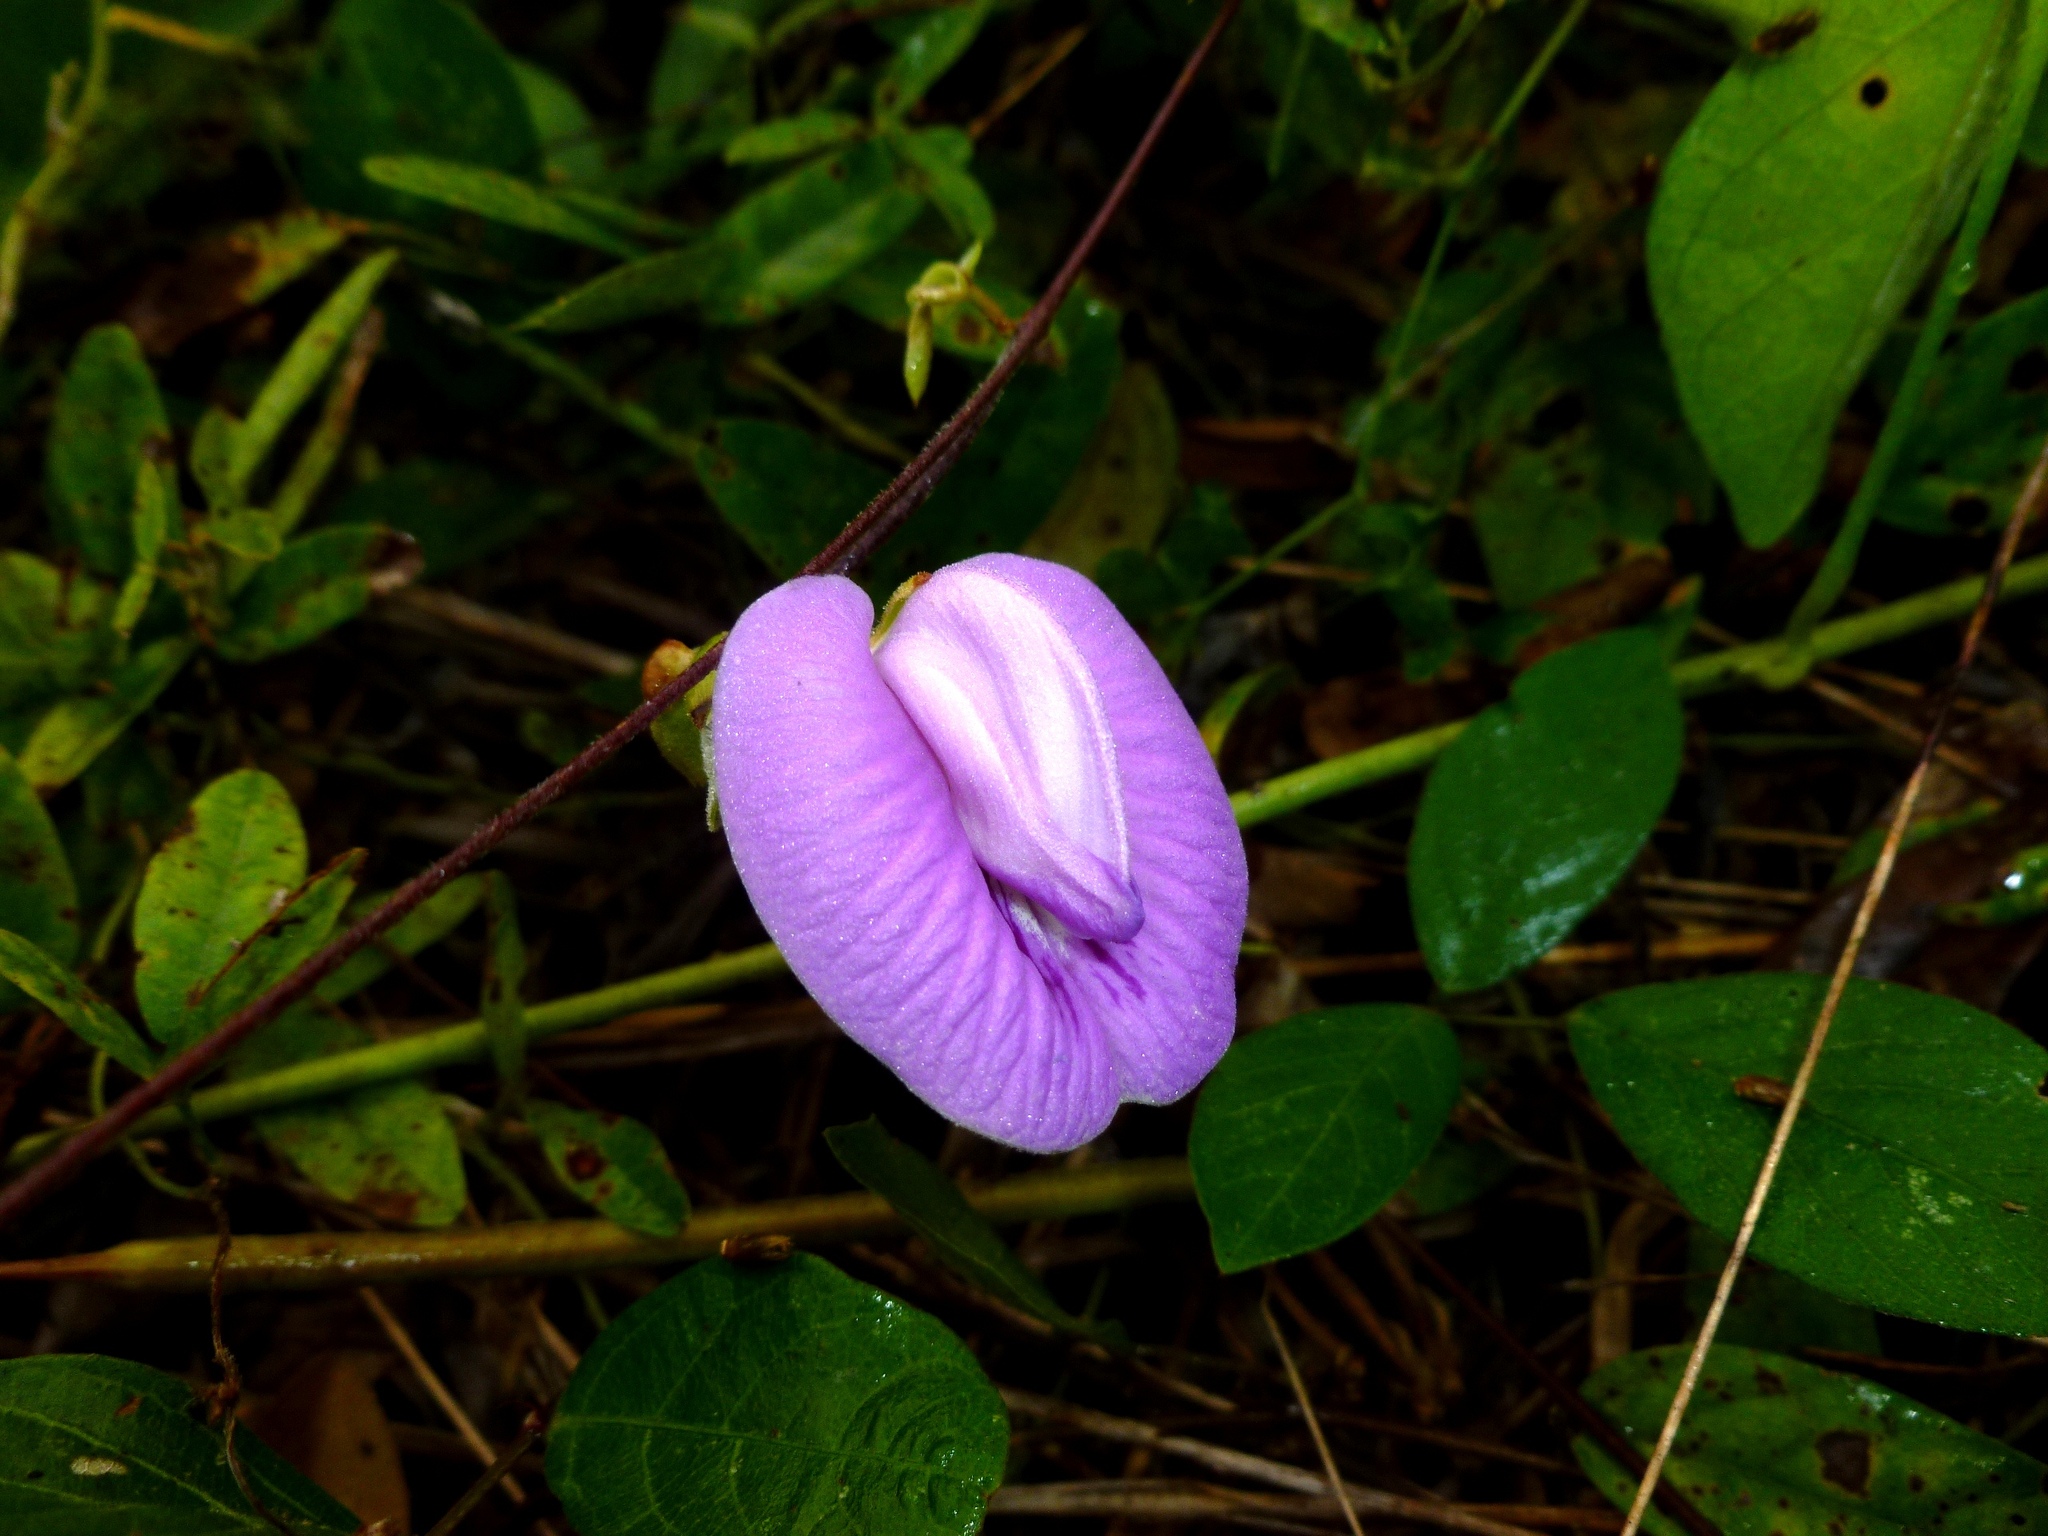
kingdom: Plantae
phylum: Tracheophyta
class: Magnoliopsida
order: Fabales
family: Fabaceae
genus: Centrosema
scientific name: Centrosema molle
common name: Soft butterfly pea
